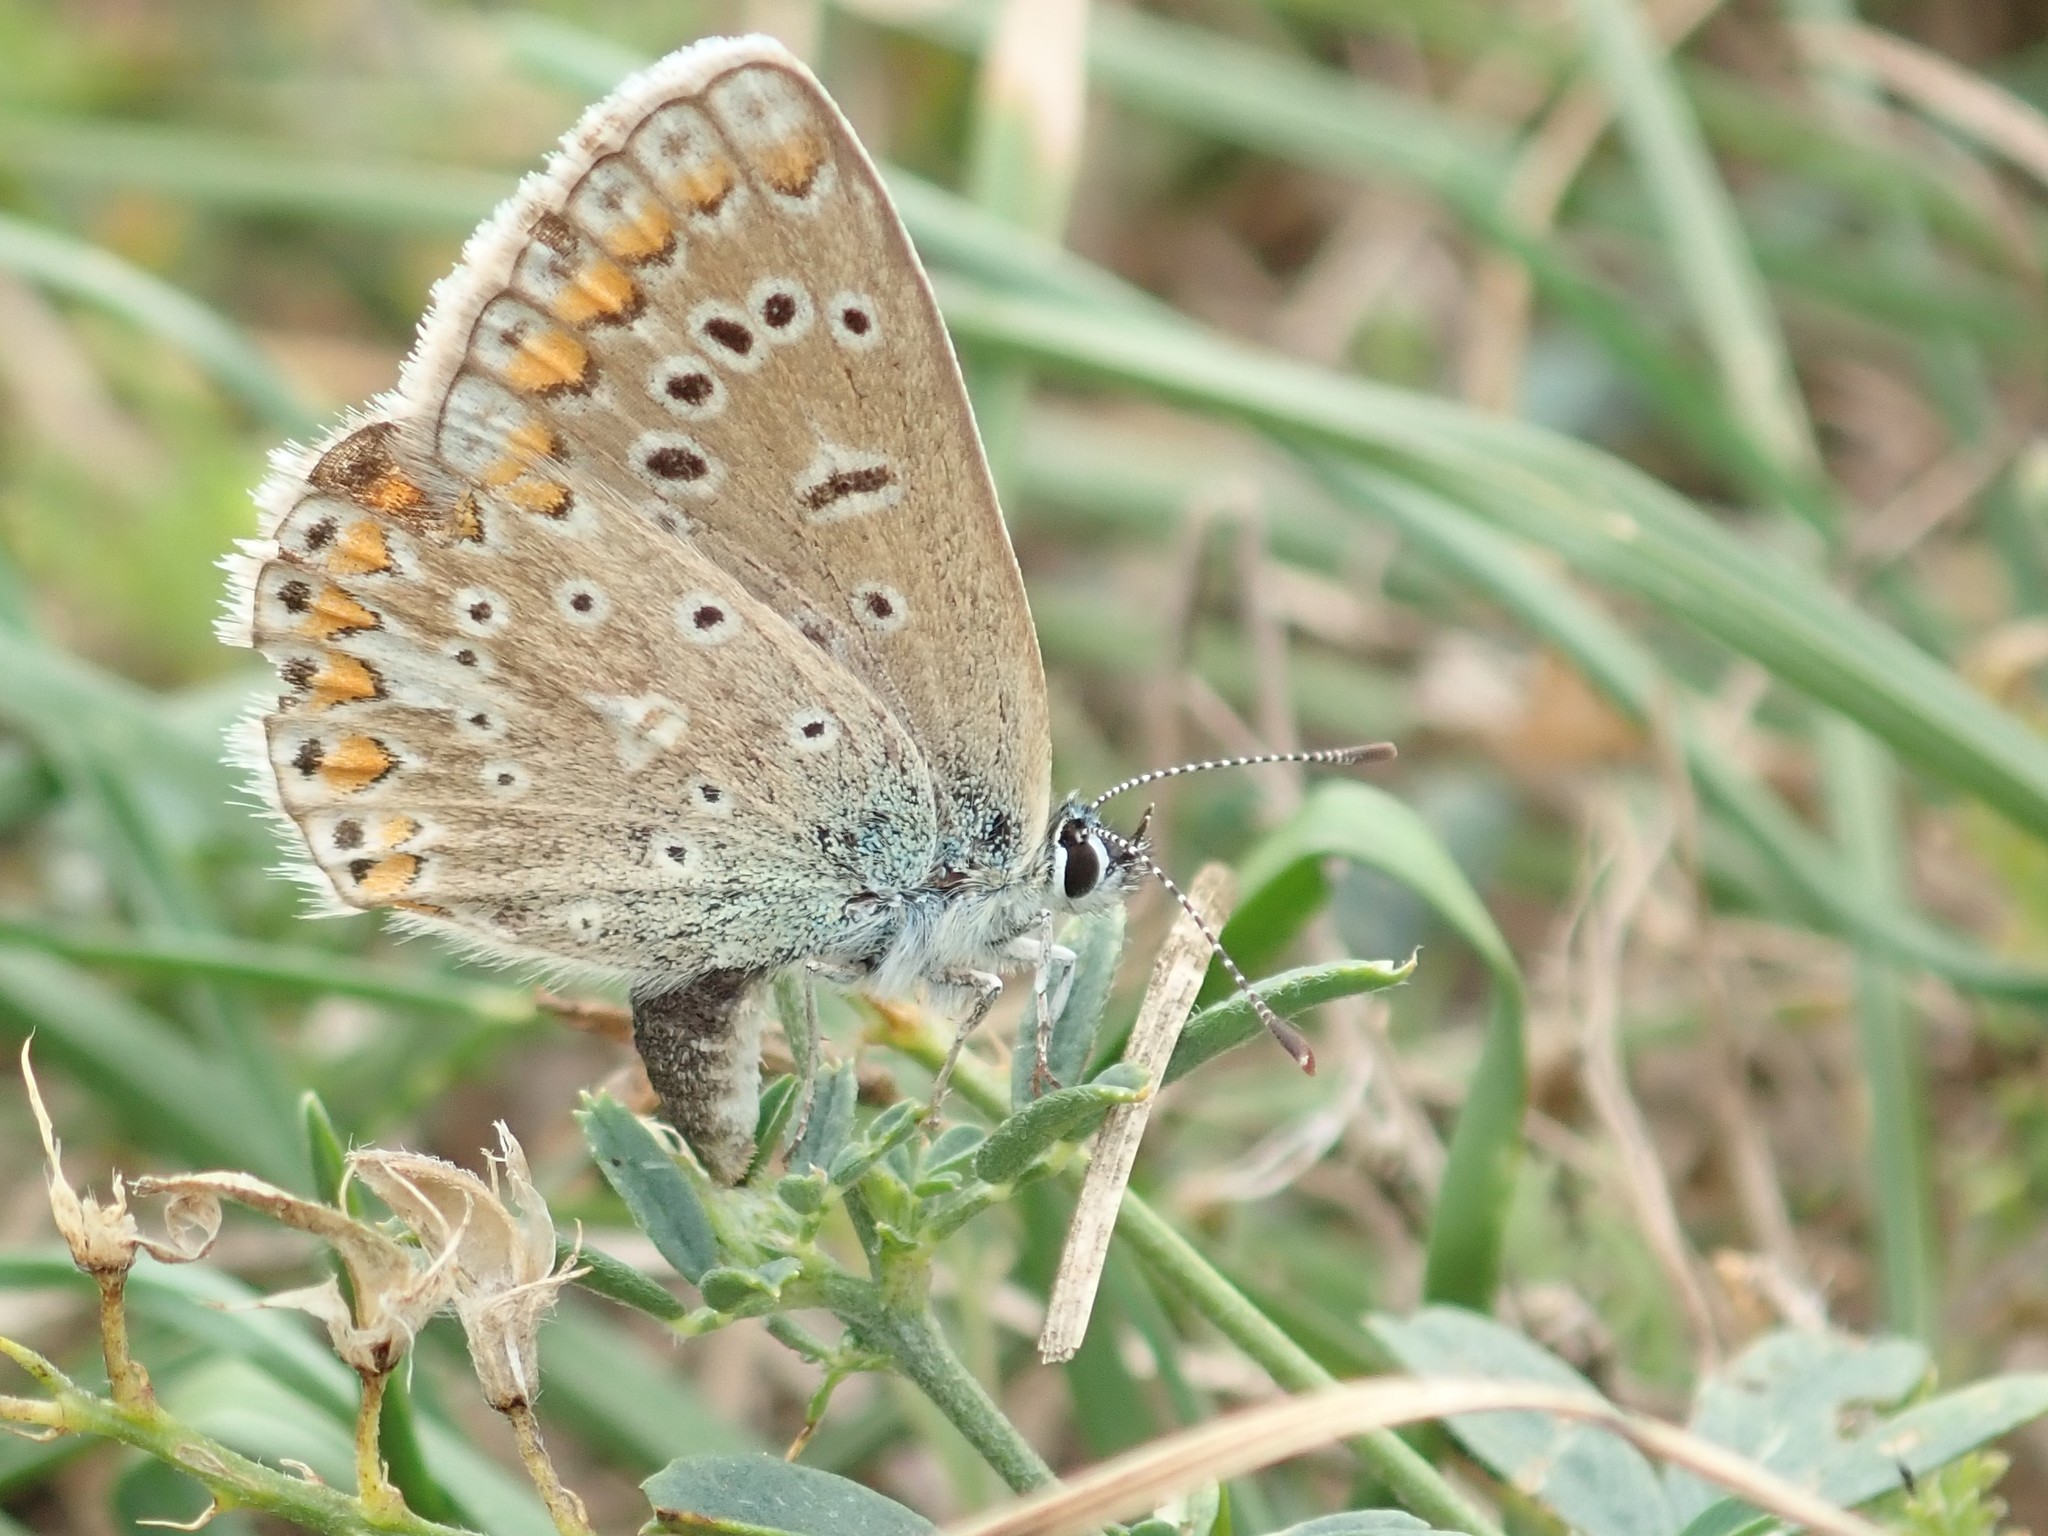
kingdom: Animalia
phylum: Arthropoda
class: Insecta
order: Lepidoptera
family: Lycaenidae
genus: Polyommatus
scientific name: Polyommatus icarus
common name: Common blue
